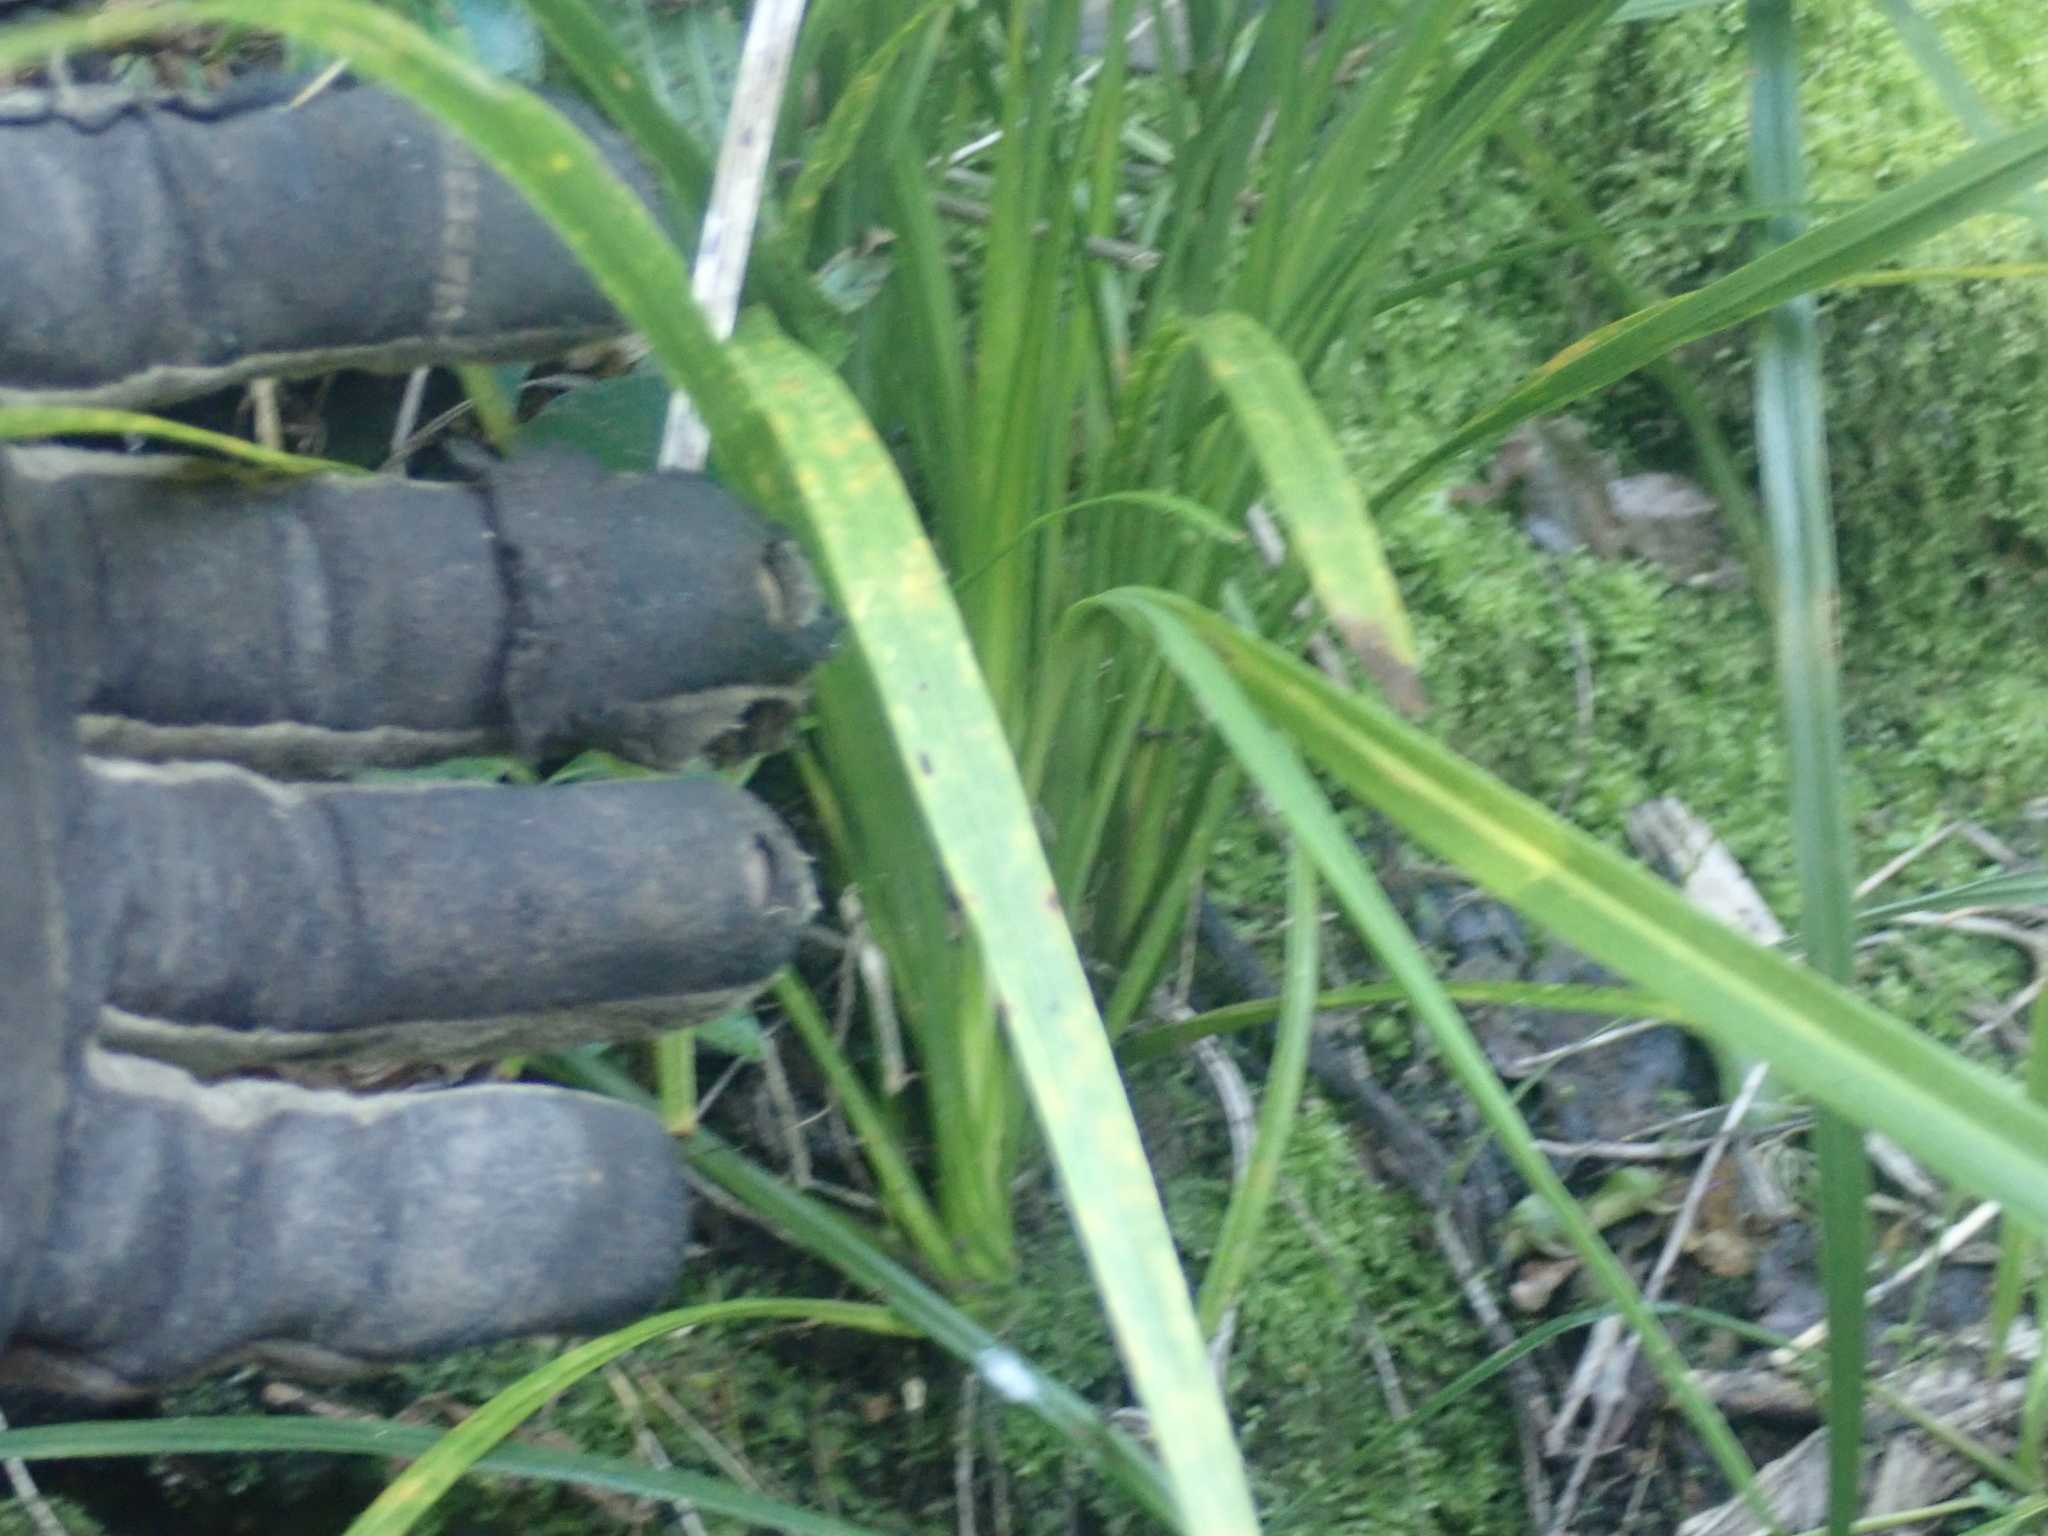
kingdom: Plantae
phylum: Tracheophyta
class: Liliopsida
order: Asparagales
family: Asparagaceae
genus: Cordyline
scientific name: Cordyline australis
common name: Cabbage-palm
